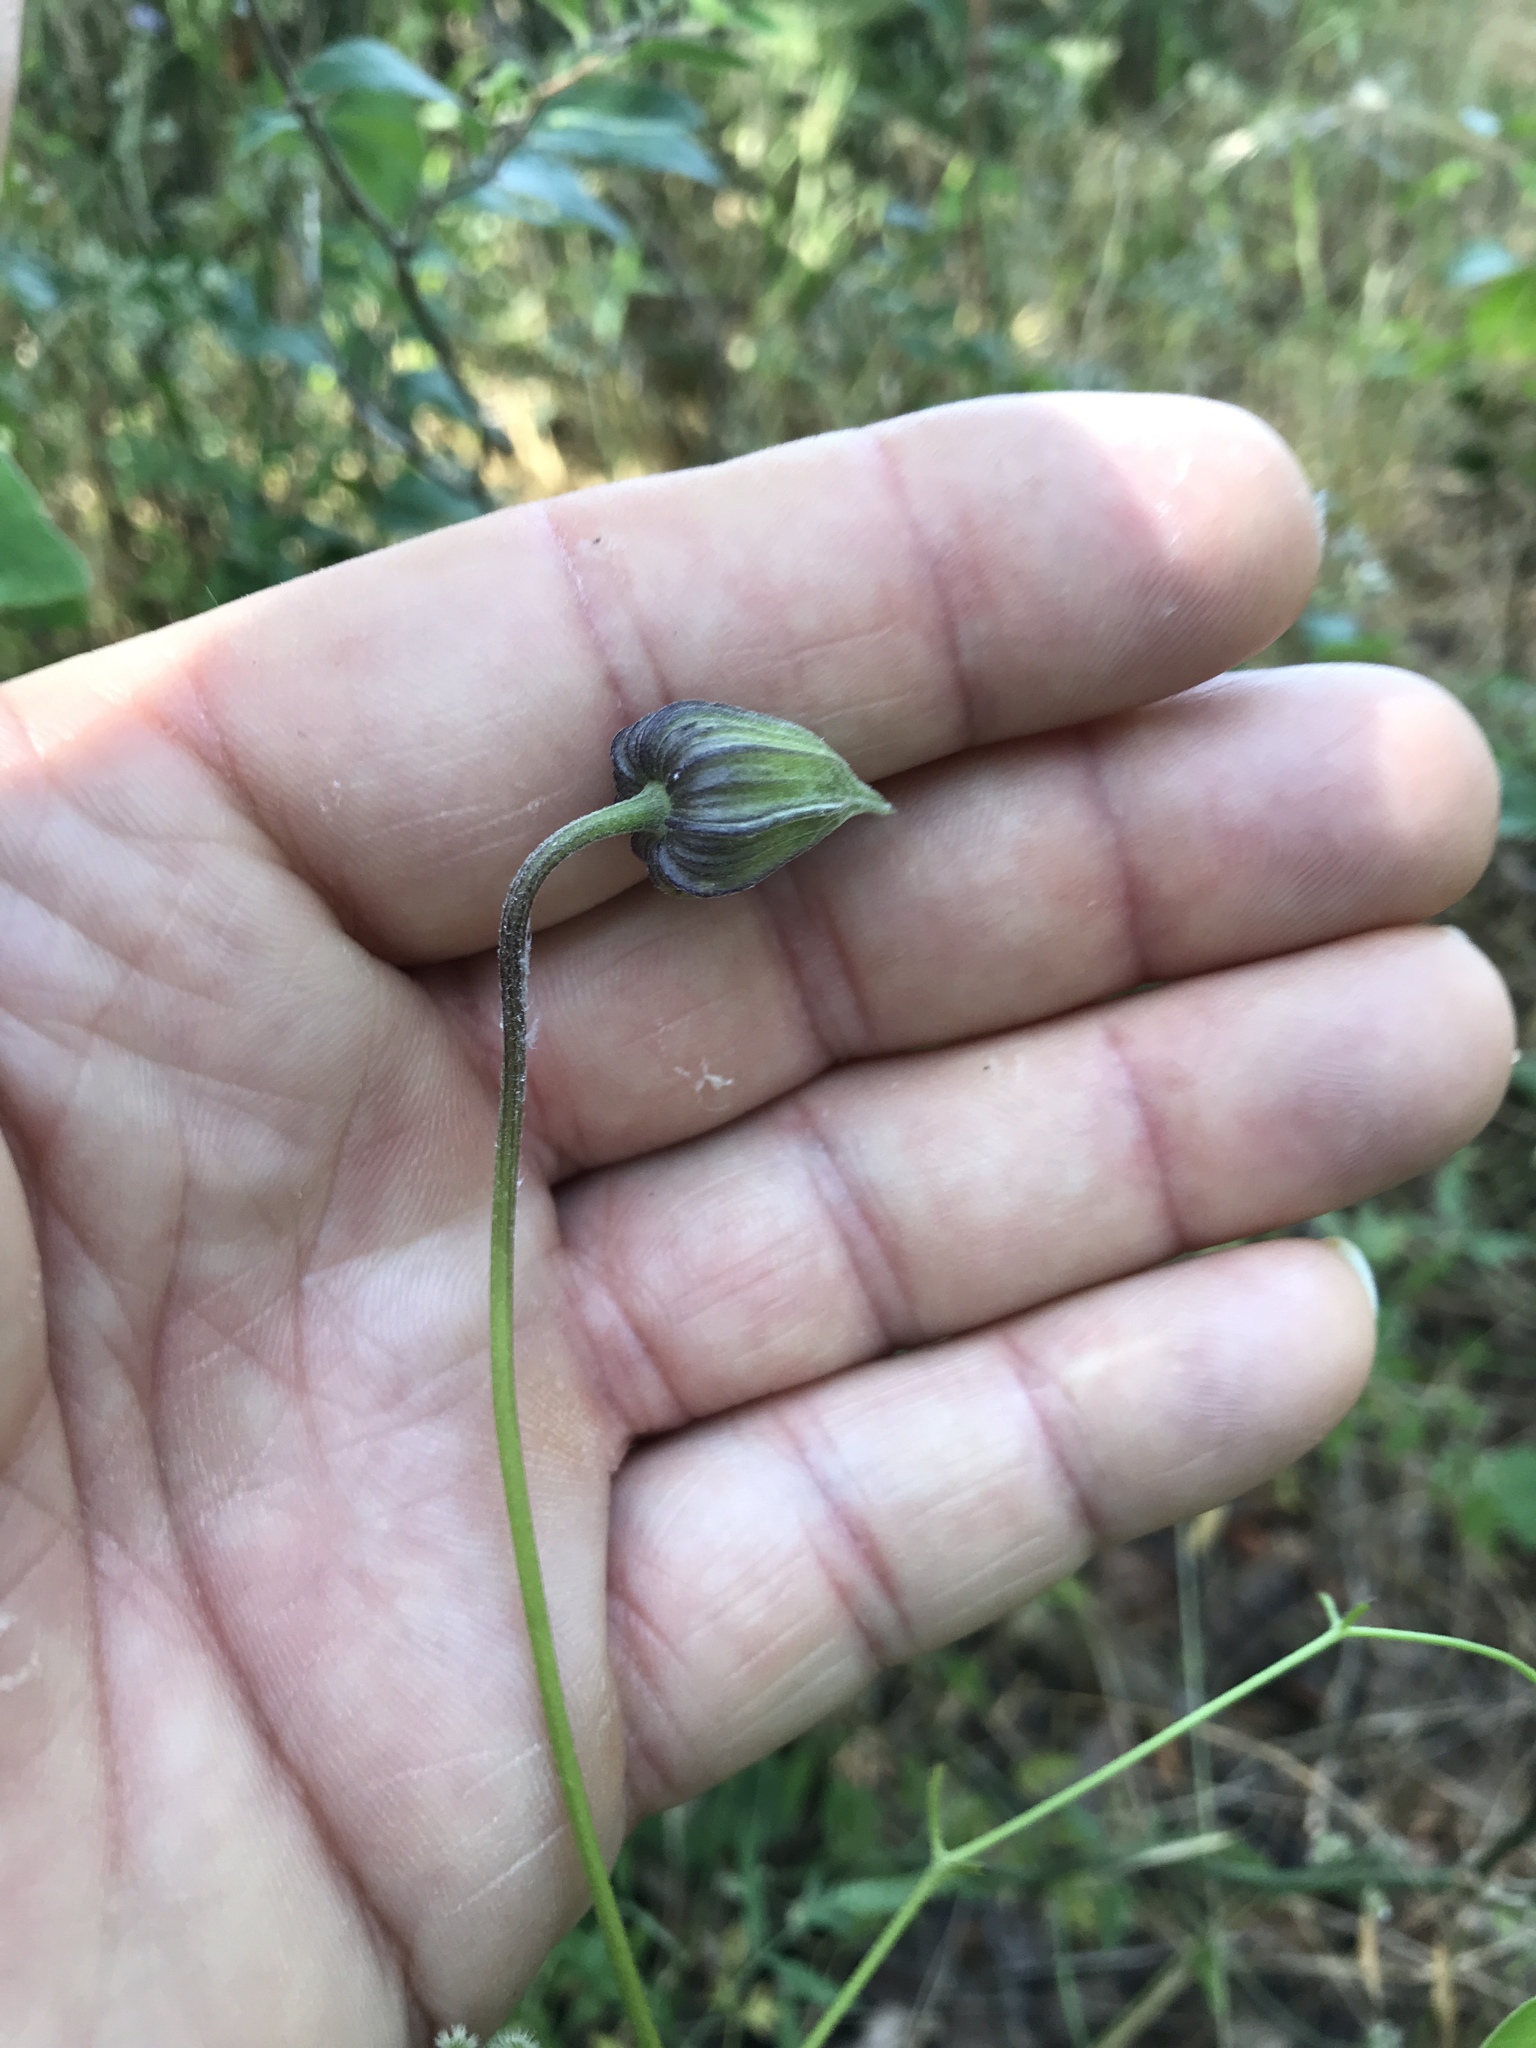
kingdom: Plantae
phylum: Tracheophyta
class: Magnoliopsida
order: Ranunculales
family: Ranunculaceae
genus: Clematis
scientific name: Clematis pitcheri
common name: Bellflower clematis
